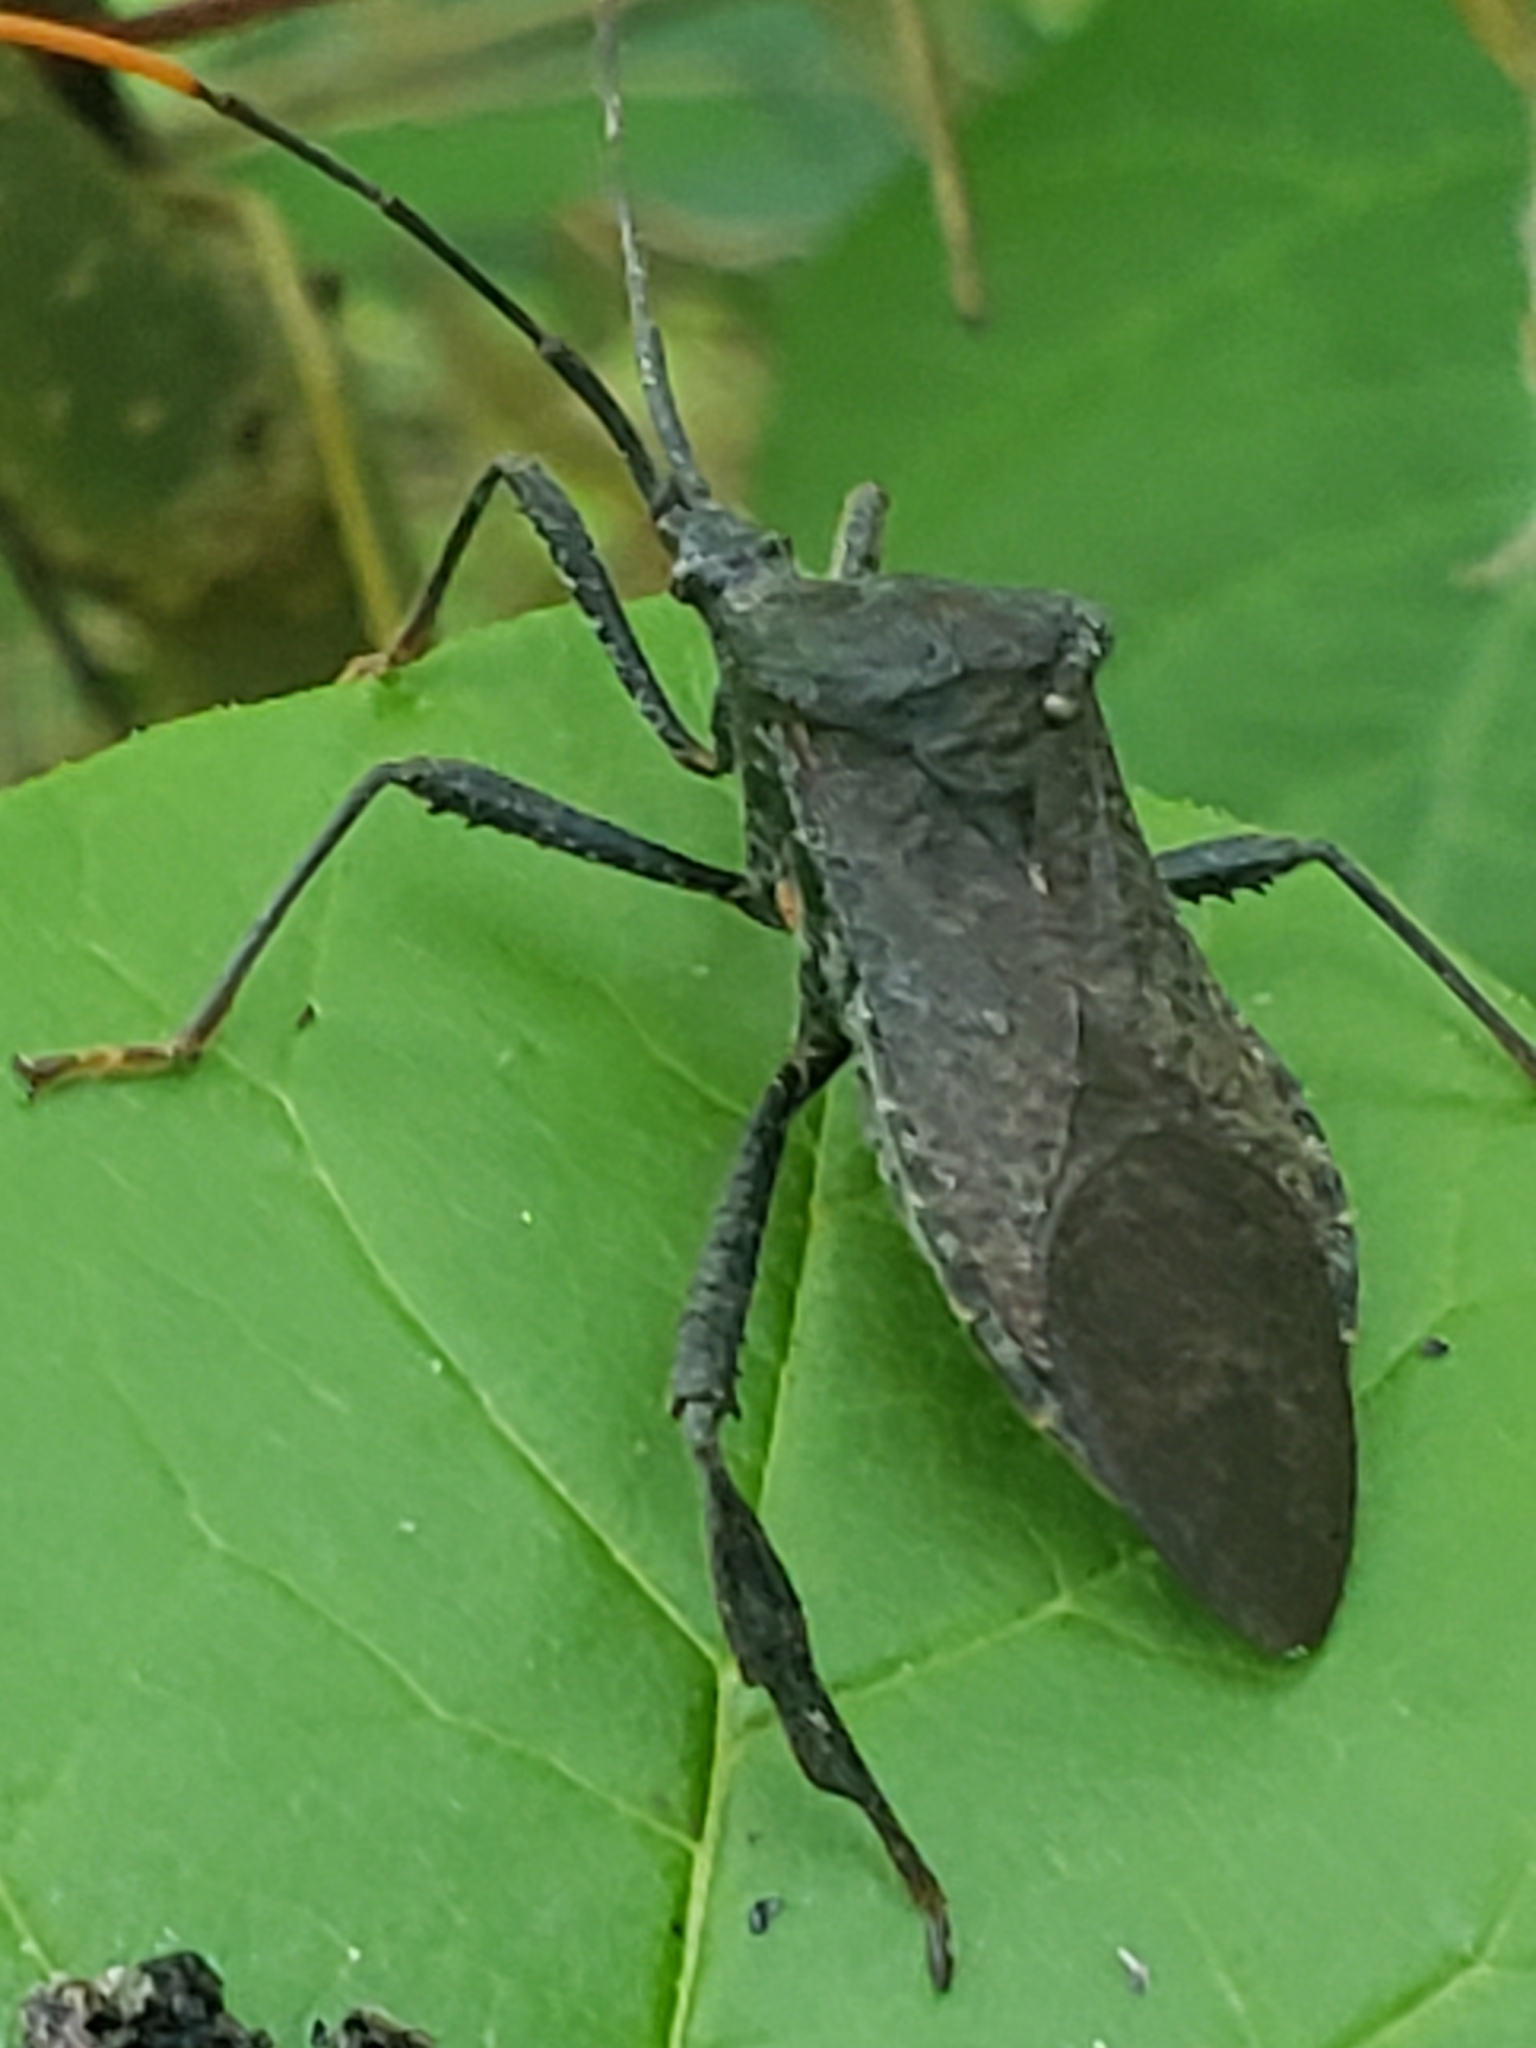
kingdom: Animalia
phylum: Arthropoda
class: Insecta
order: Hemiptera
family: Coreidae
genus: Acanthocephala
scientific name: Acanthocephala terminalis
